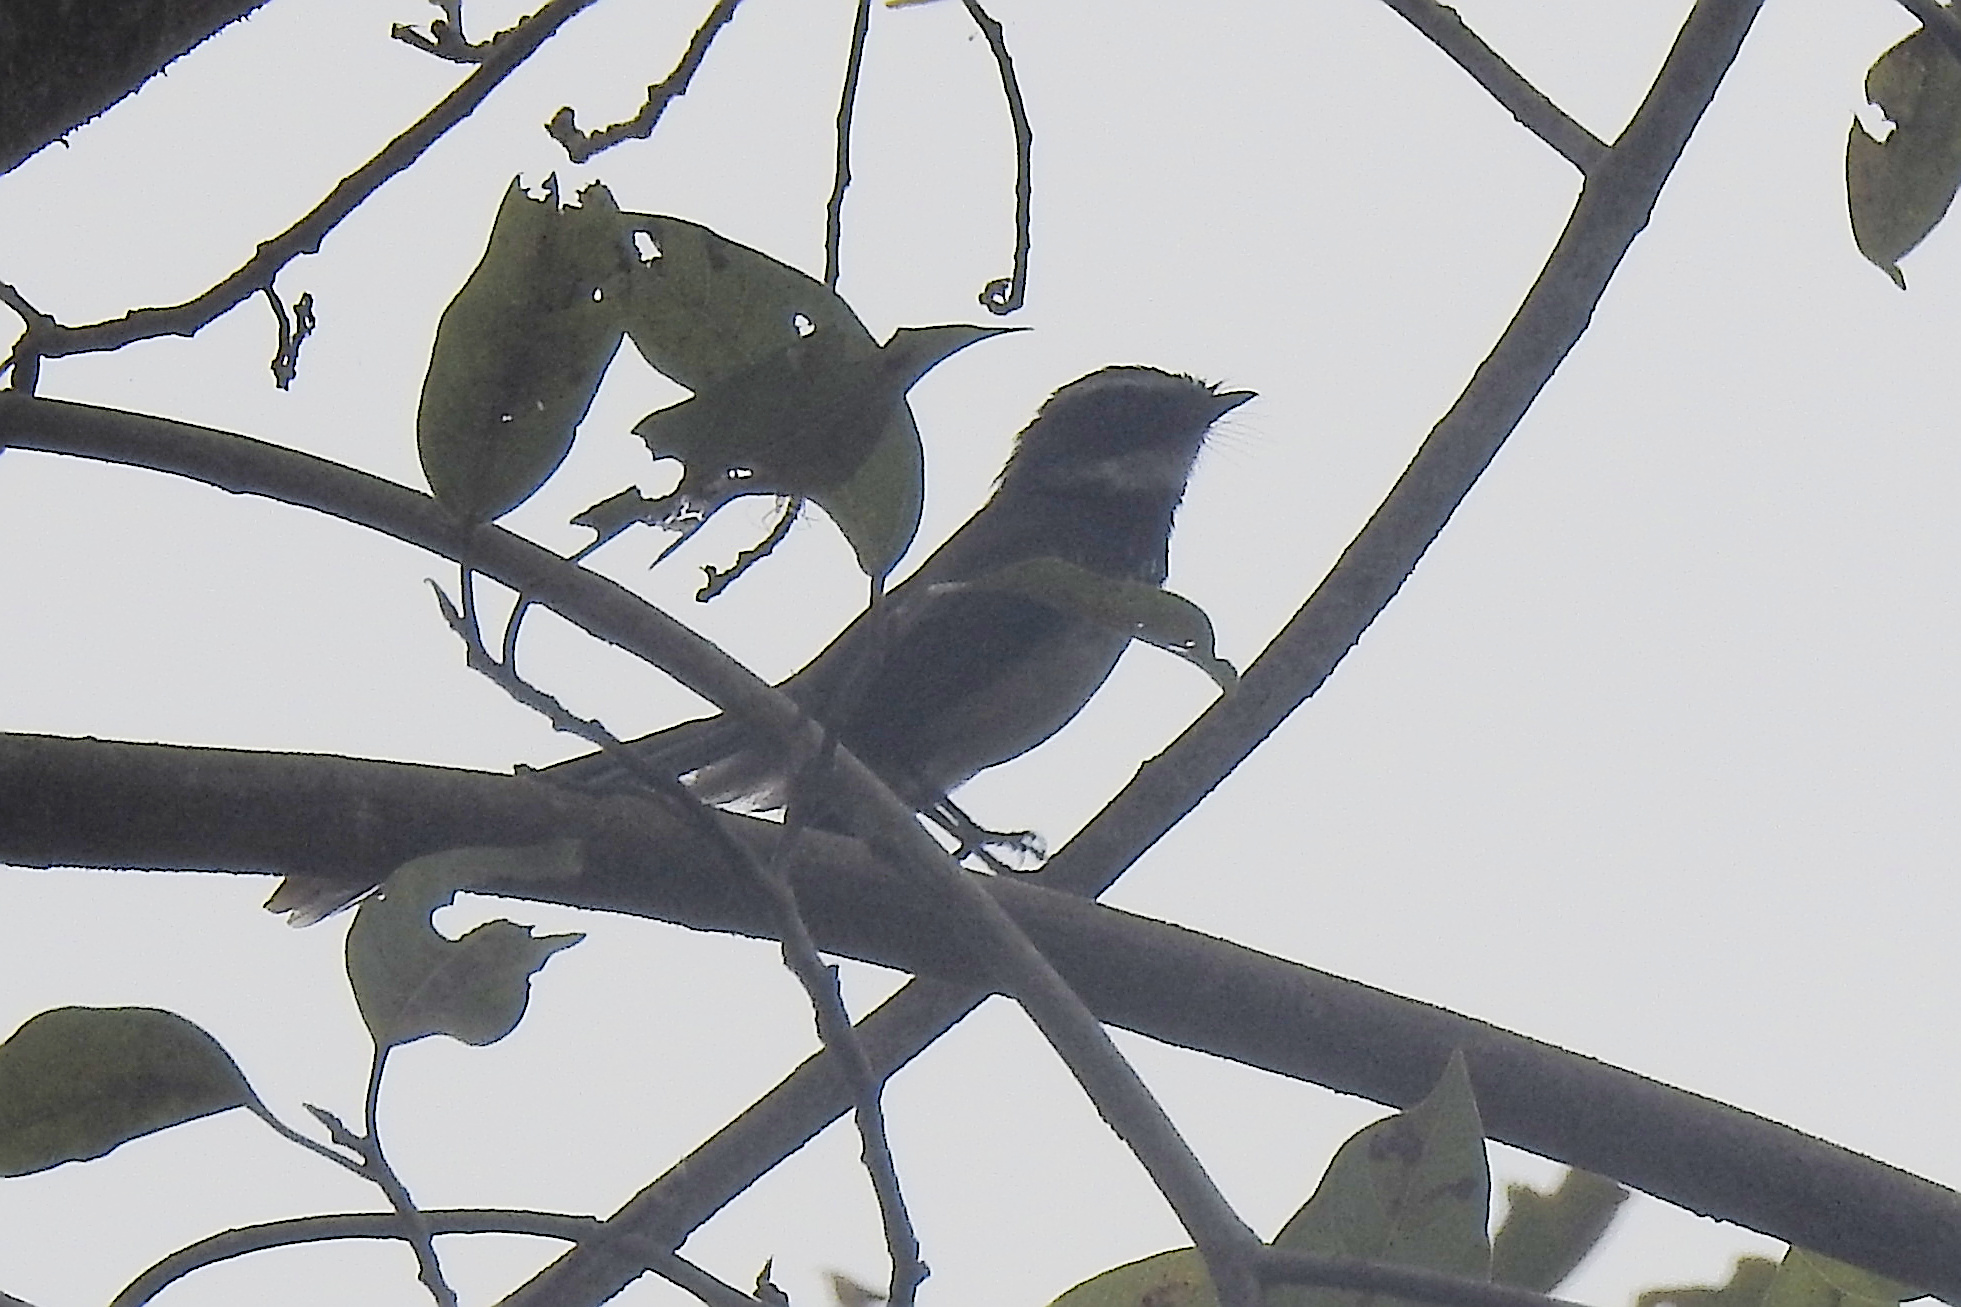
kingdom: Animalia
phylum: Chordata
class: Aves
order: Passeriformes
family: Rhipiduridae
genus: Rhipidura
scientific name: Rhipidura albogularis
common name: White-spotted fantail
